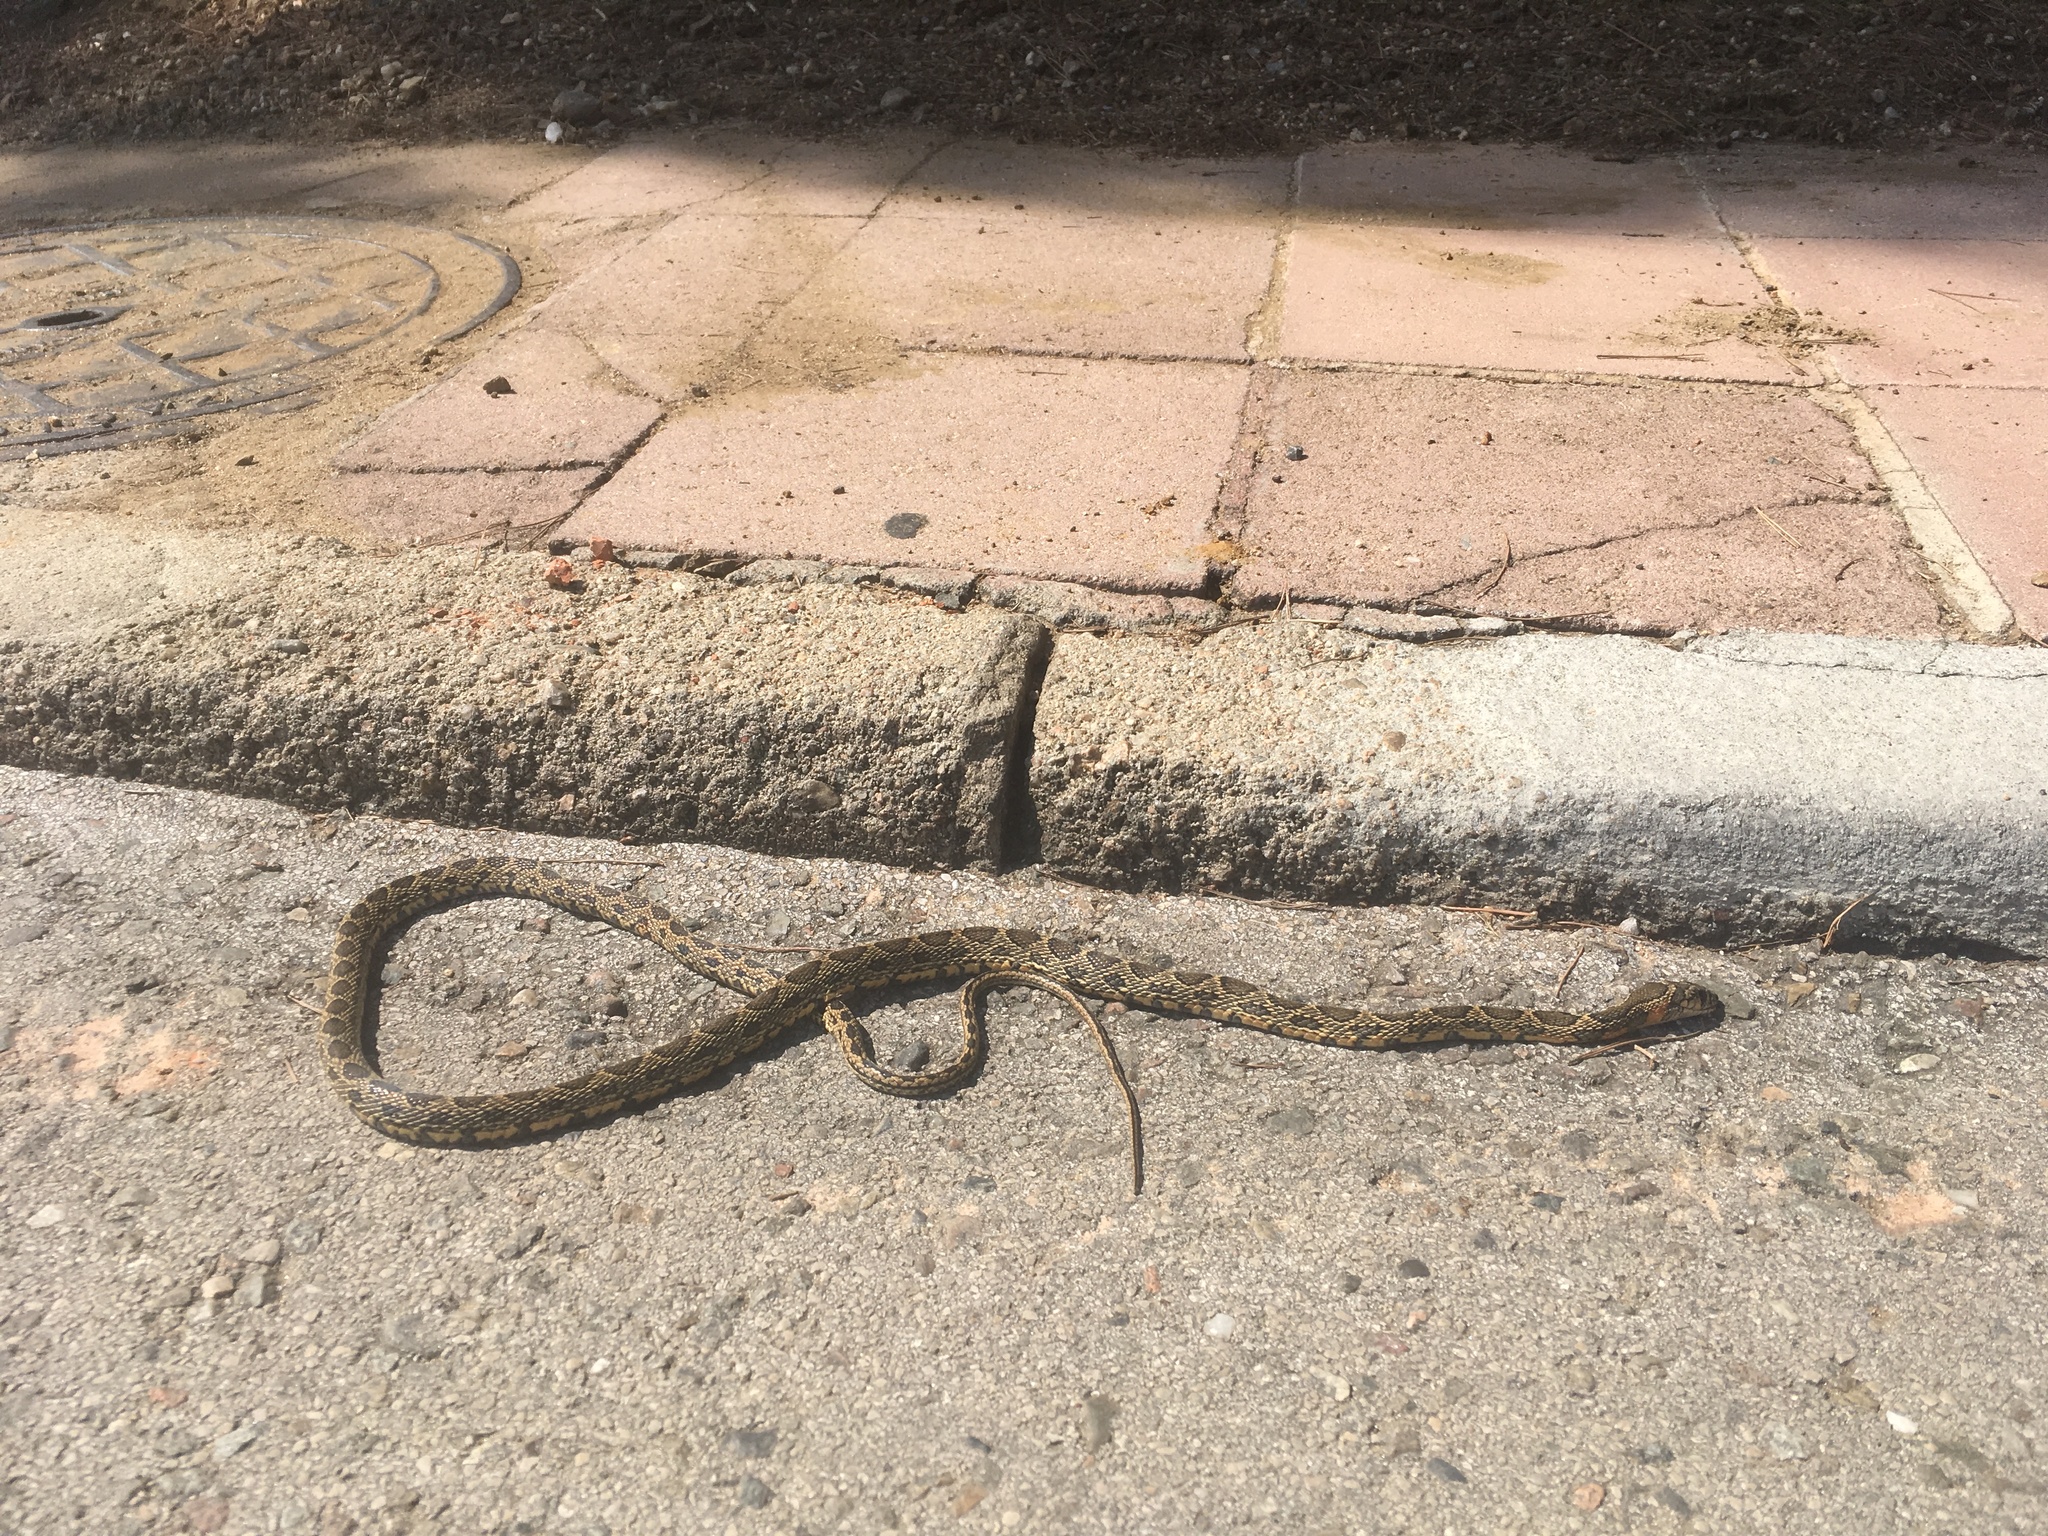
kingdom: Animalia
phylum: Chordata
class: Squamata
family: Colubridae
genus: Hemorrhois
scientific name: Hemorrhois hippocrepis
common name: Horseshoe whip snake
